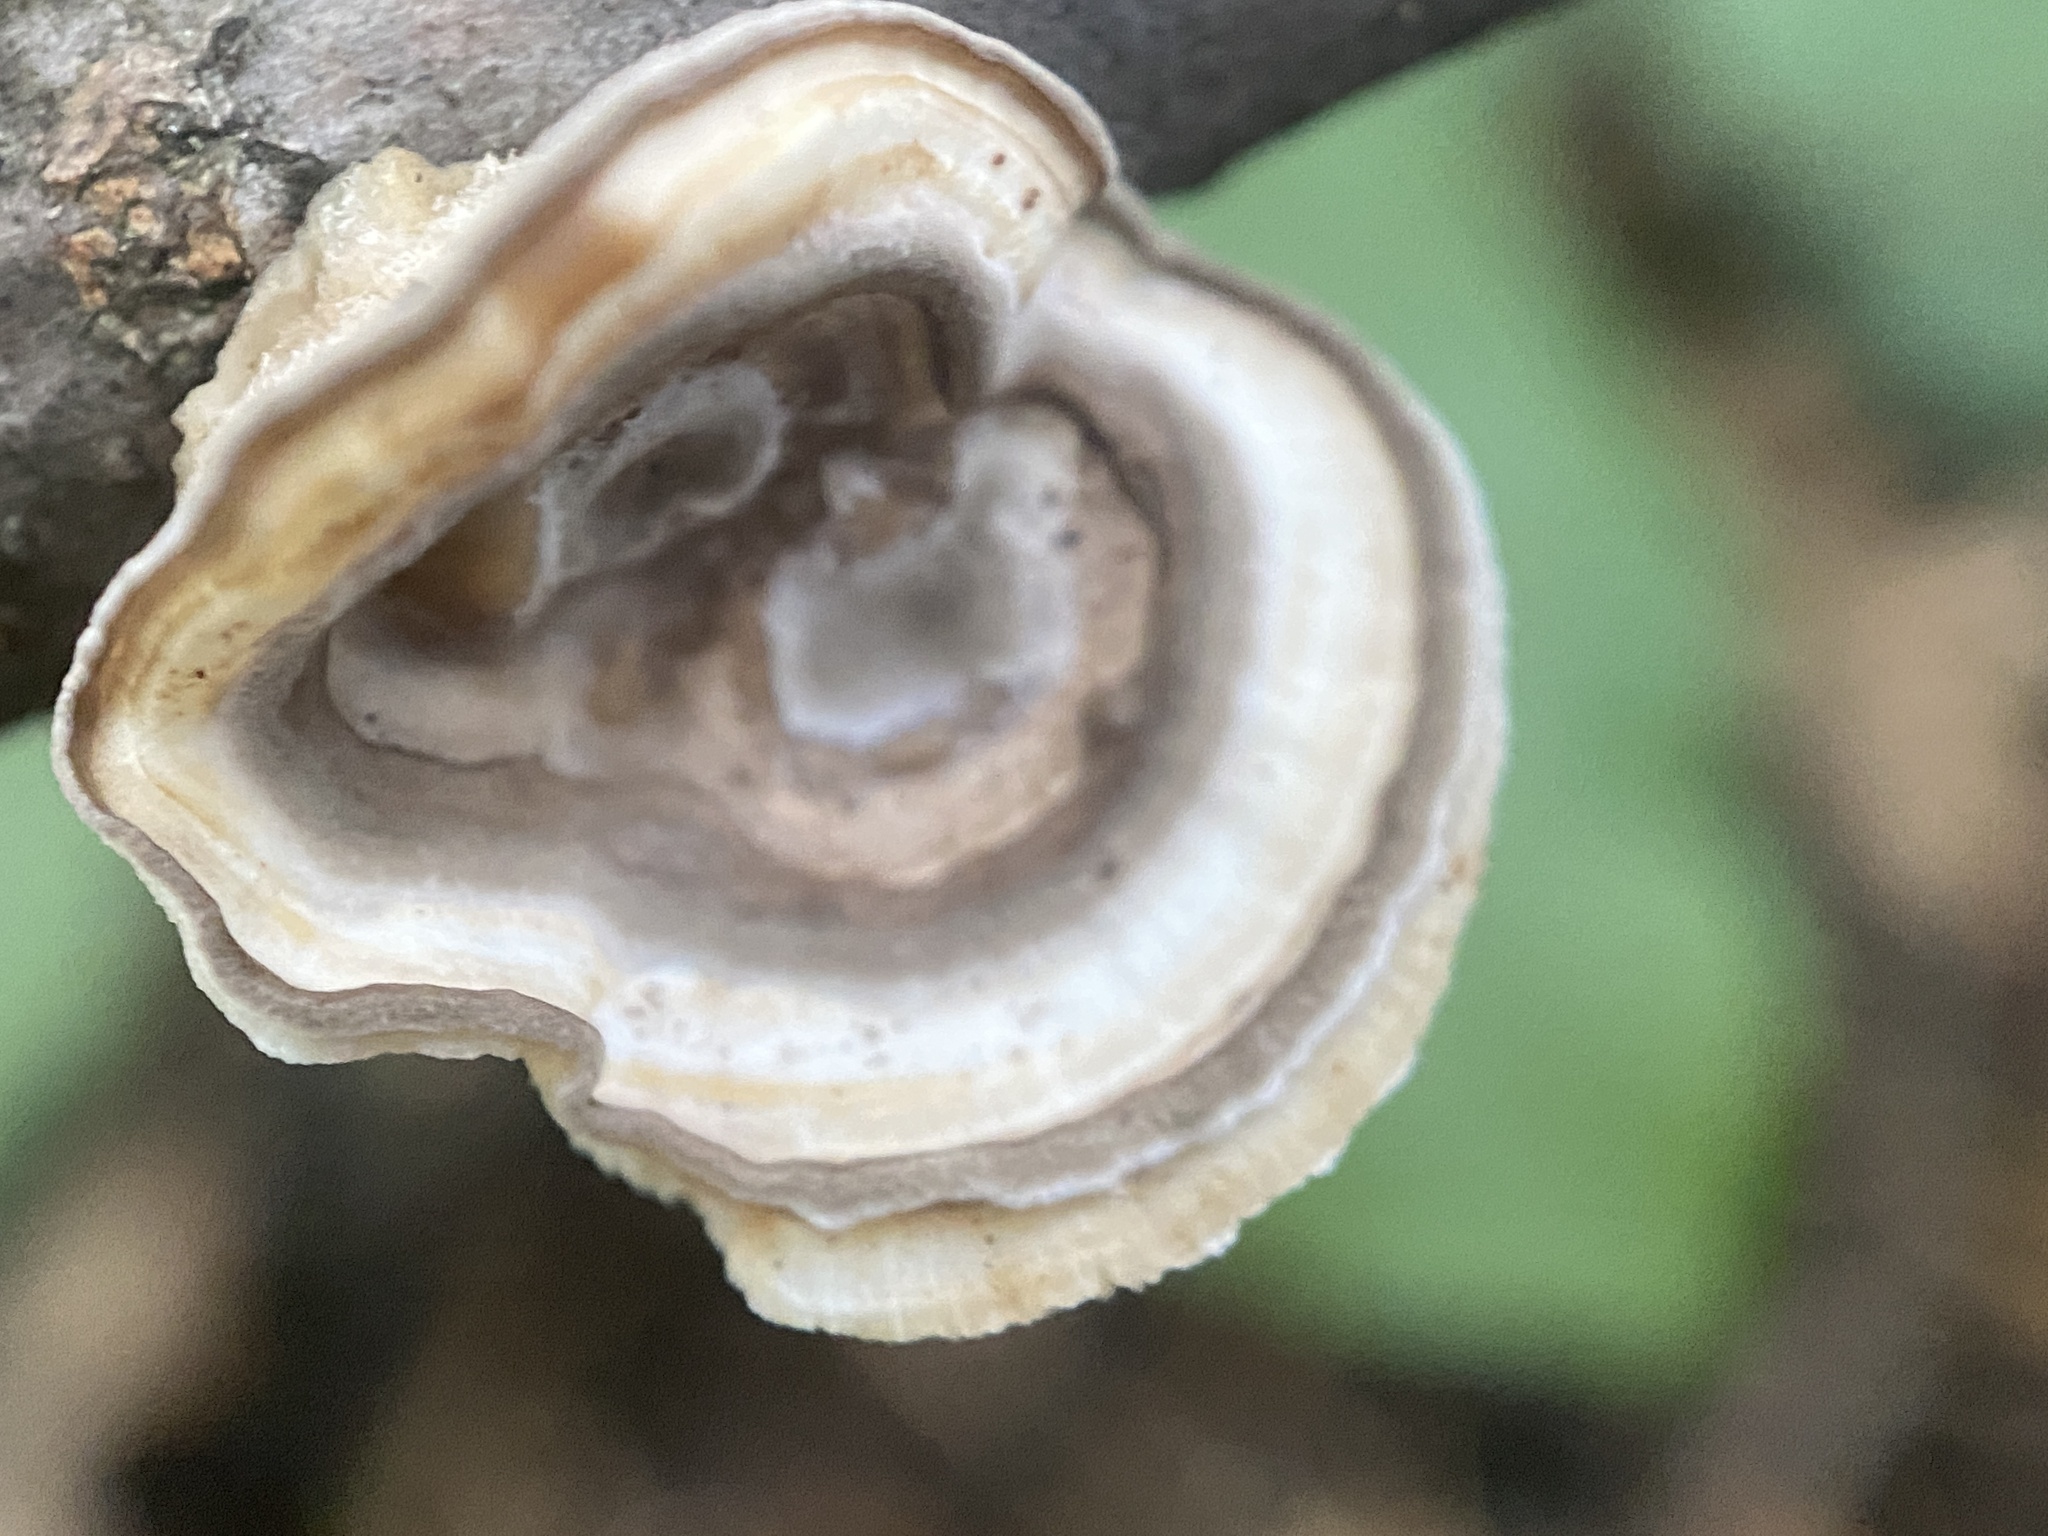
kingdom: Fungi
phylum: Basidiomycota
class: Agaricomycetes
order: Polyporales
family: Polyporaceae
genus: Poronidulus
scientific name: Poronidulus conchifer
